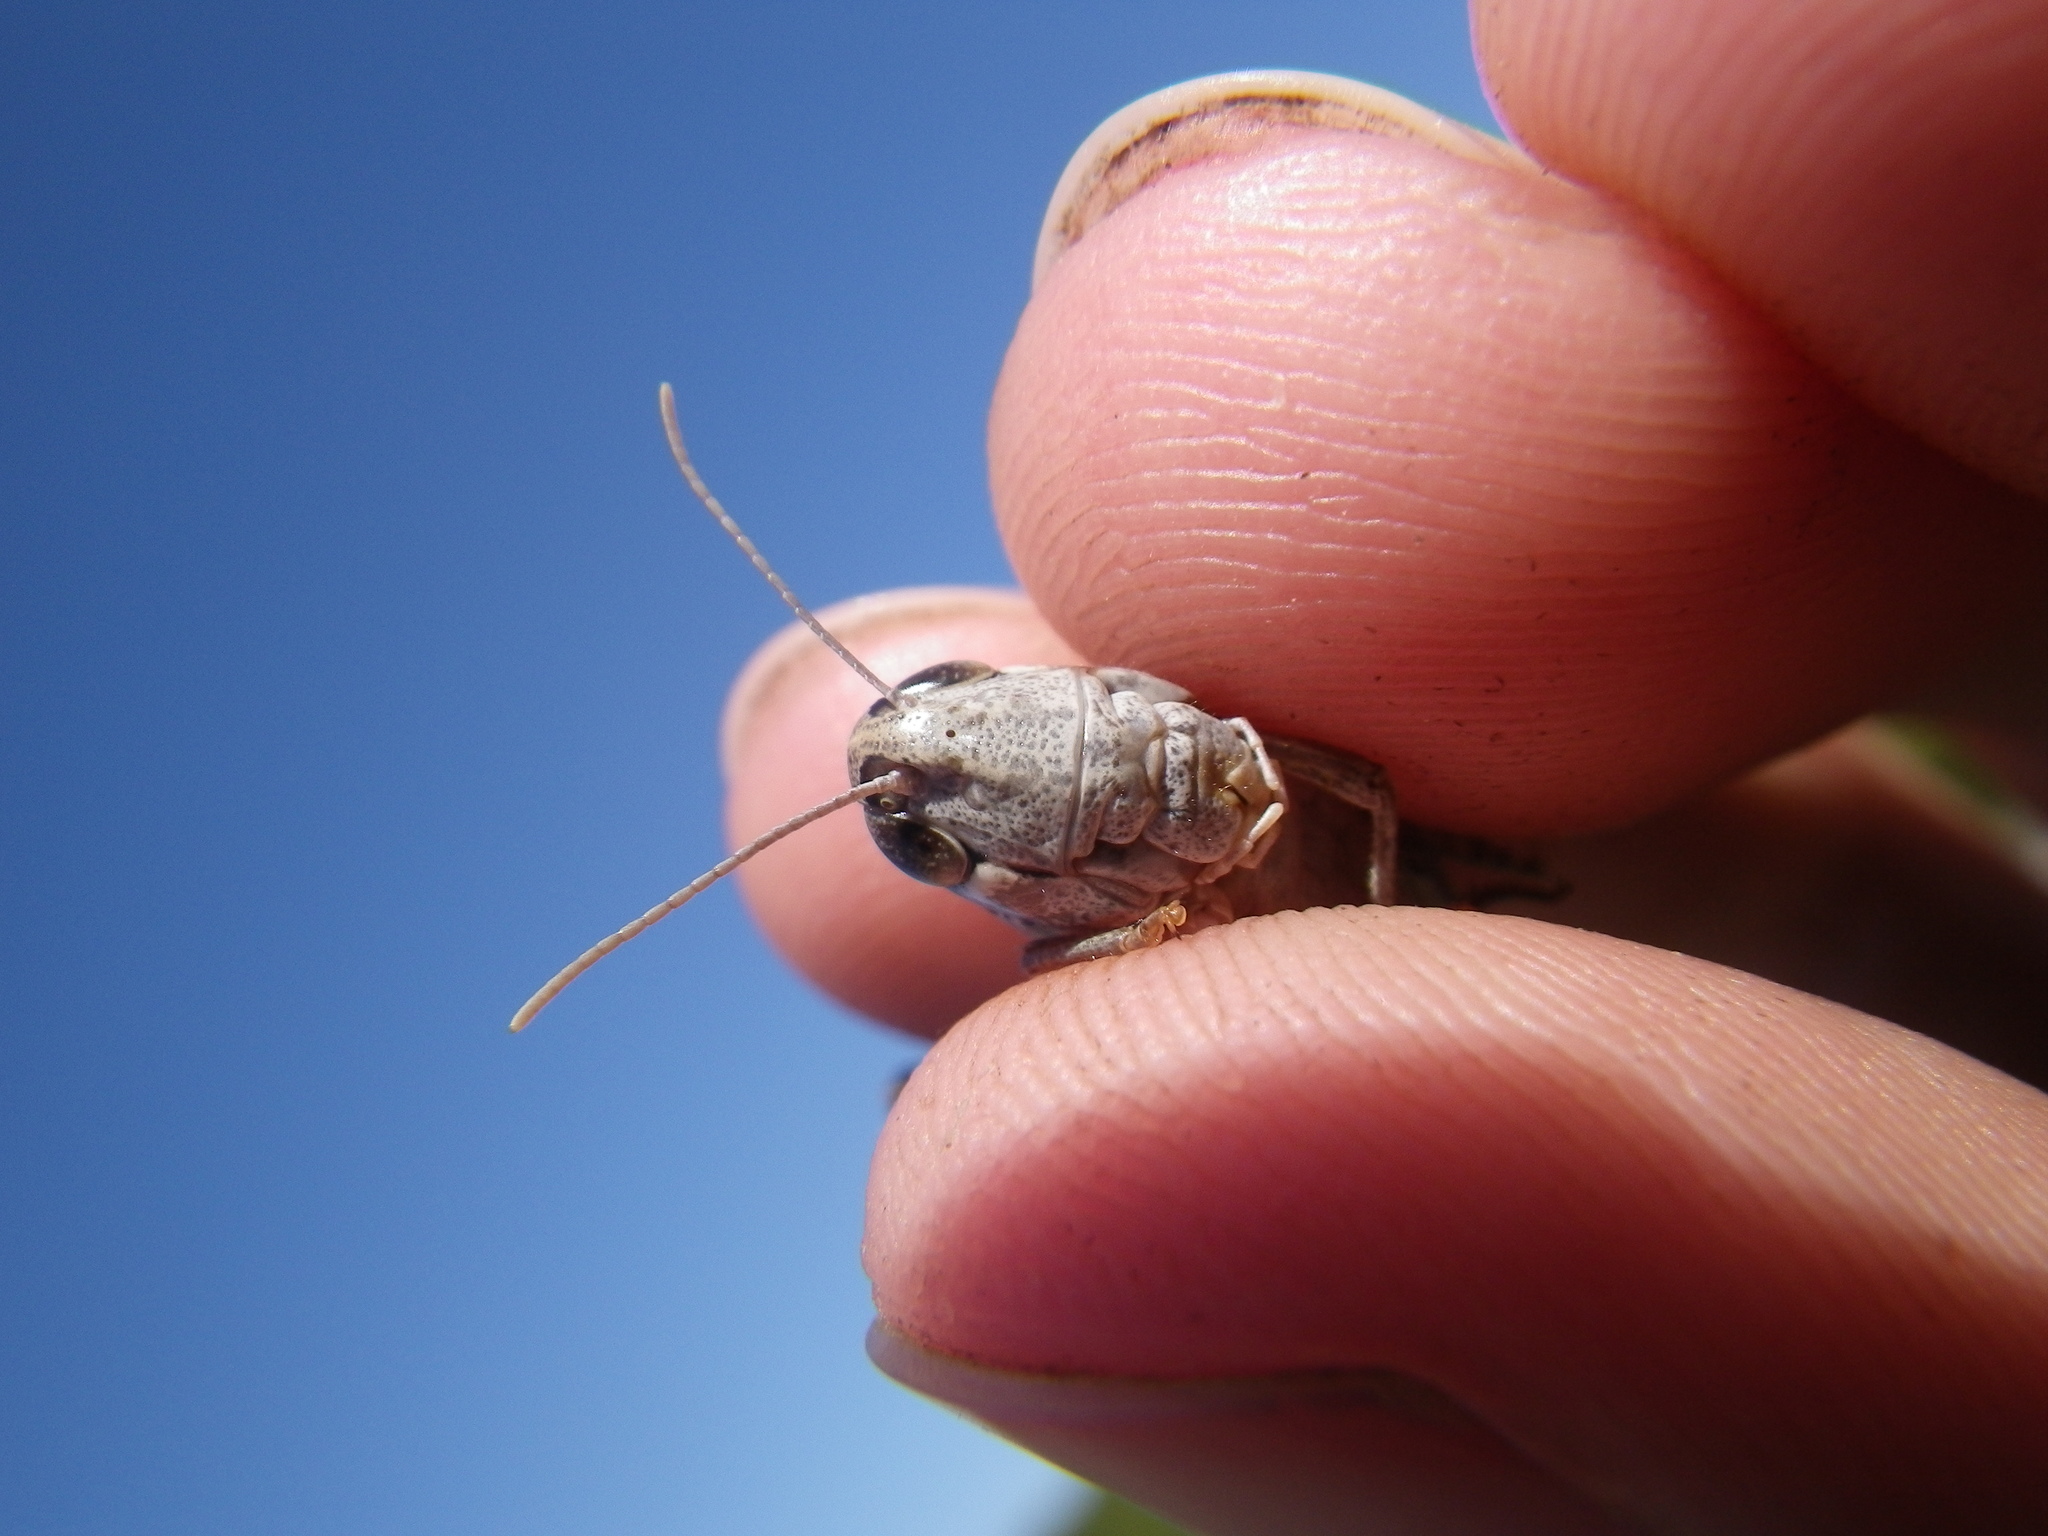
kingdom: Animalia
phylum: Arthropoda
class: Insecta
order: Orthoptera
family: Acrididae
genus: Stenobothrus
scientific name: Stenobothrus nigromaculatus
